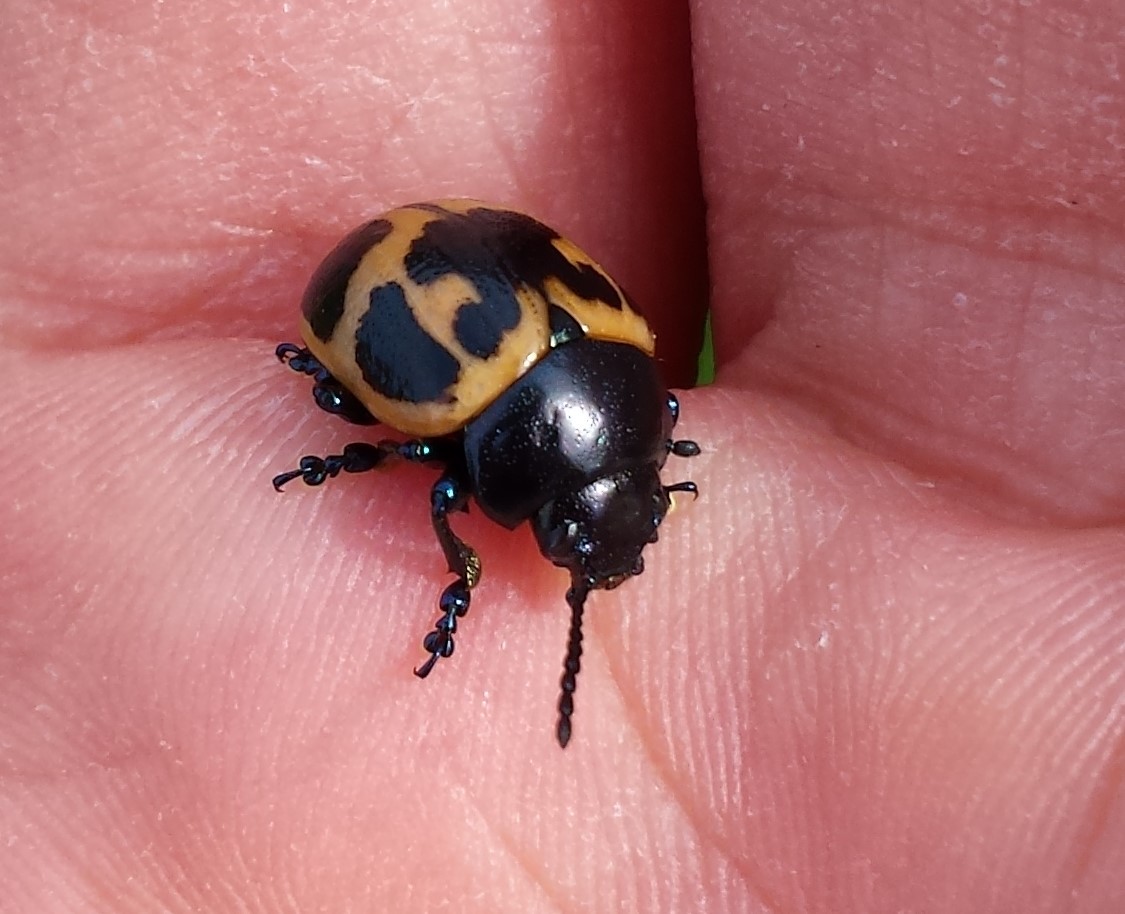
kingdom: Animalia
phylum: Arthropoda
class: Insecta
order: Coleoptera
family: Chrysomelidae
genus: Labidomera
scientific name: Labidomera clivicollis
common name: Swamp milkweed leaf beetle
